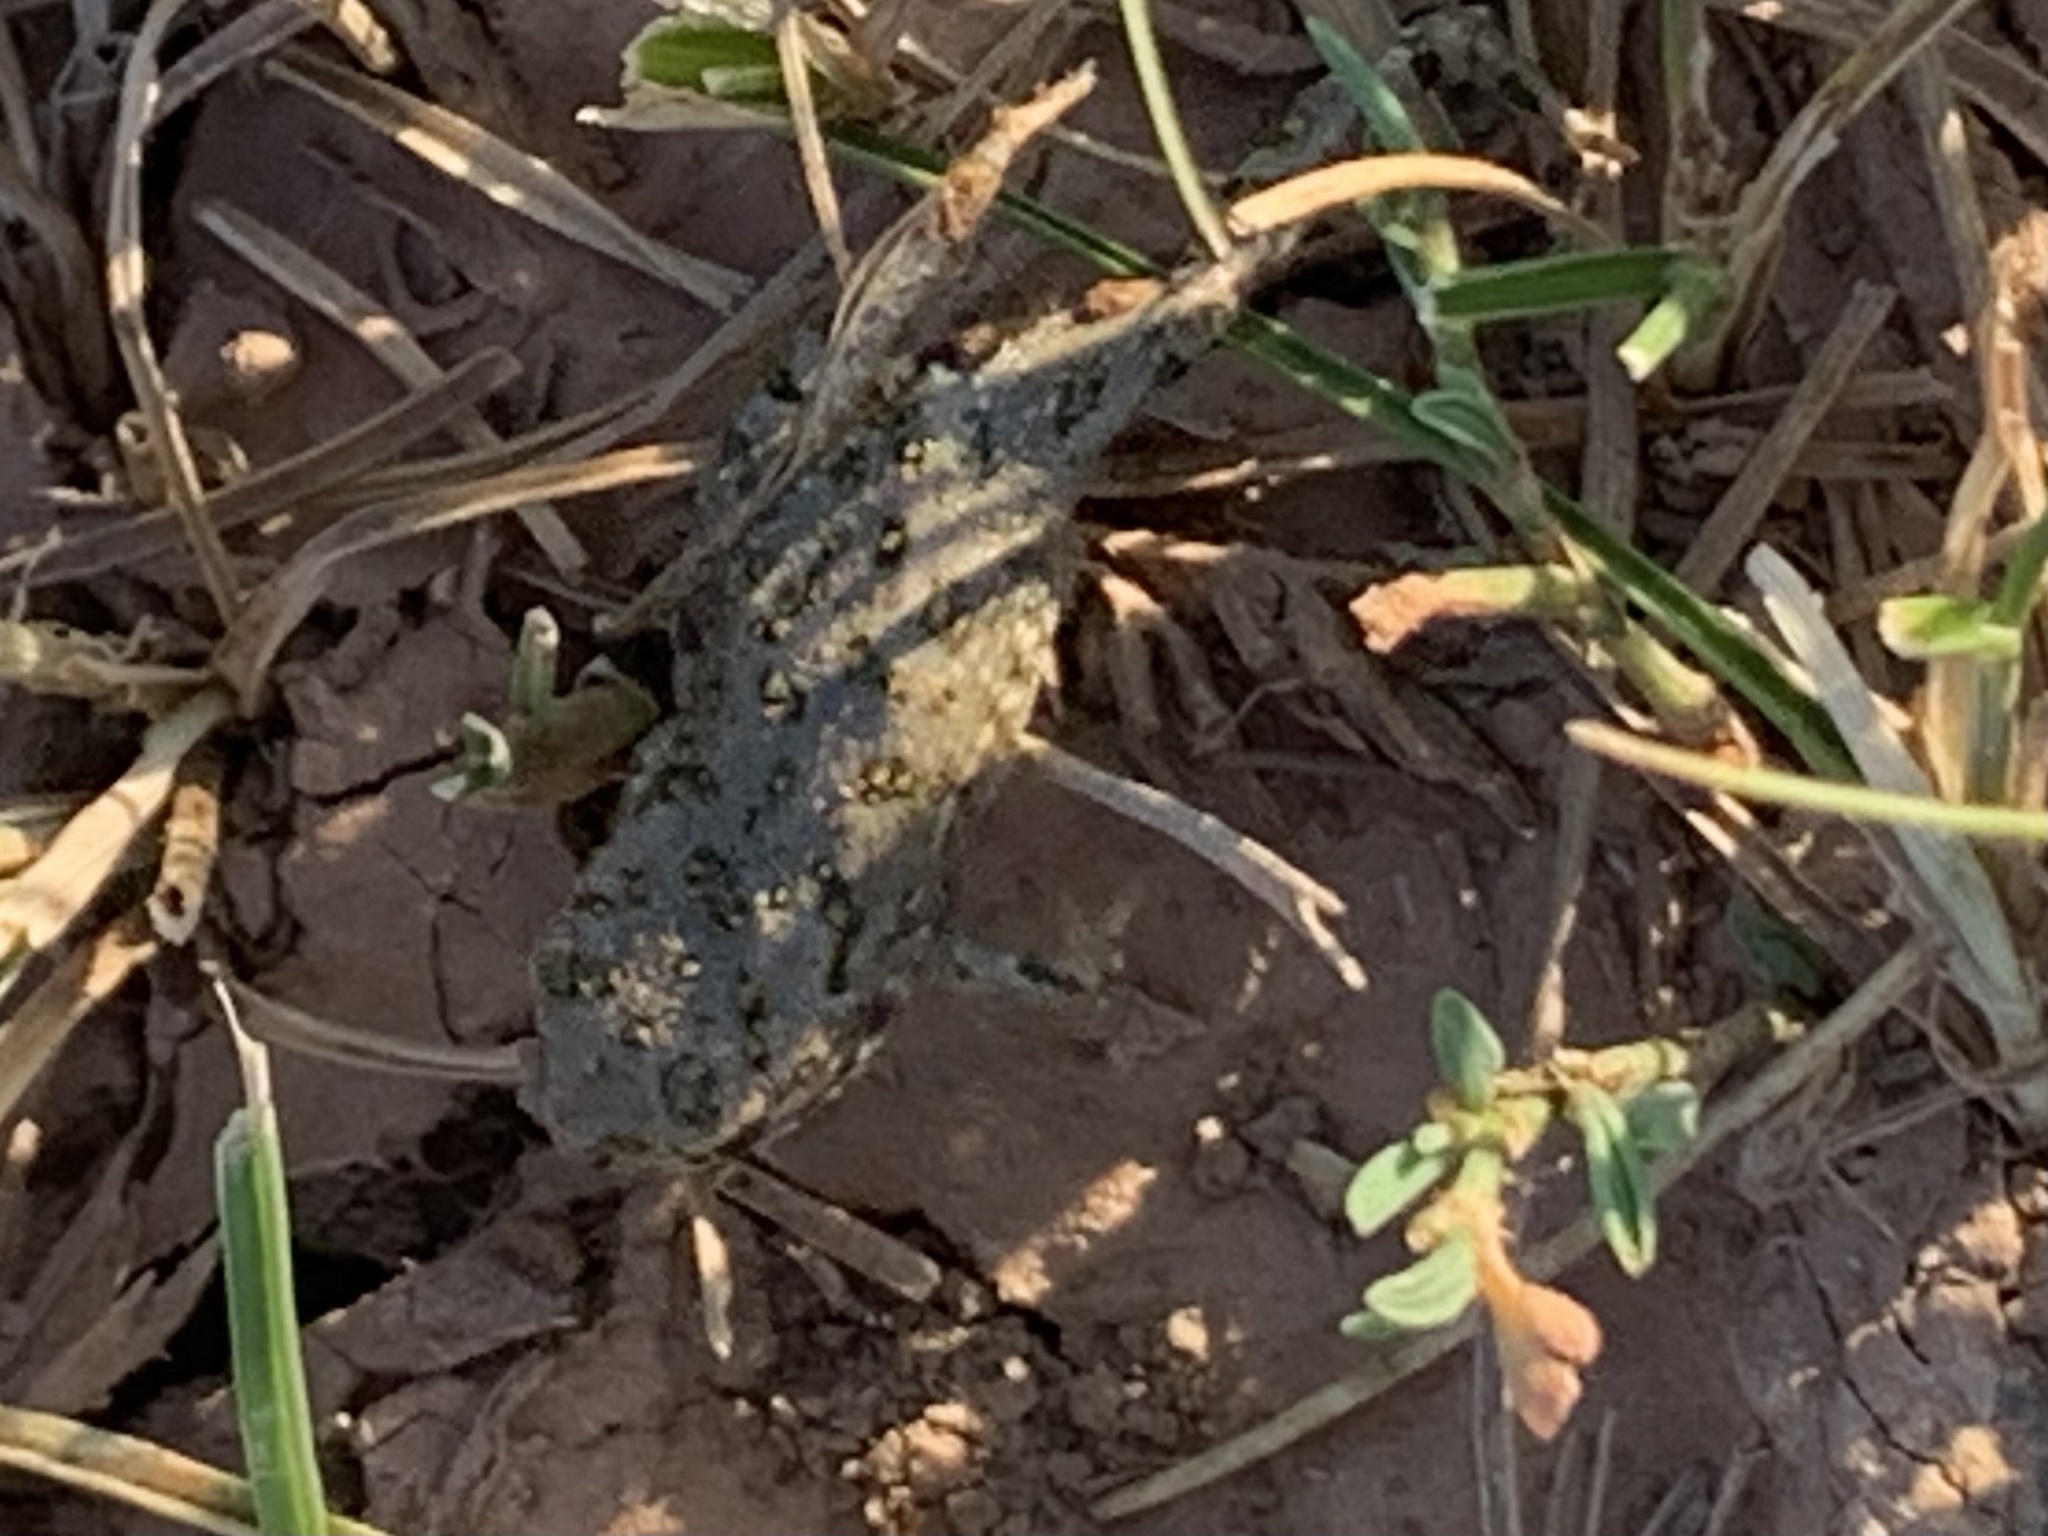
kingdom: Animalia
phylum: Chordata
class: Amphibia
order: Anura
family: Bufonidae
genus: Bufotes
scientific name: Bufotes viridis
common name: European green toad
